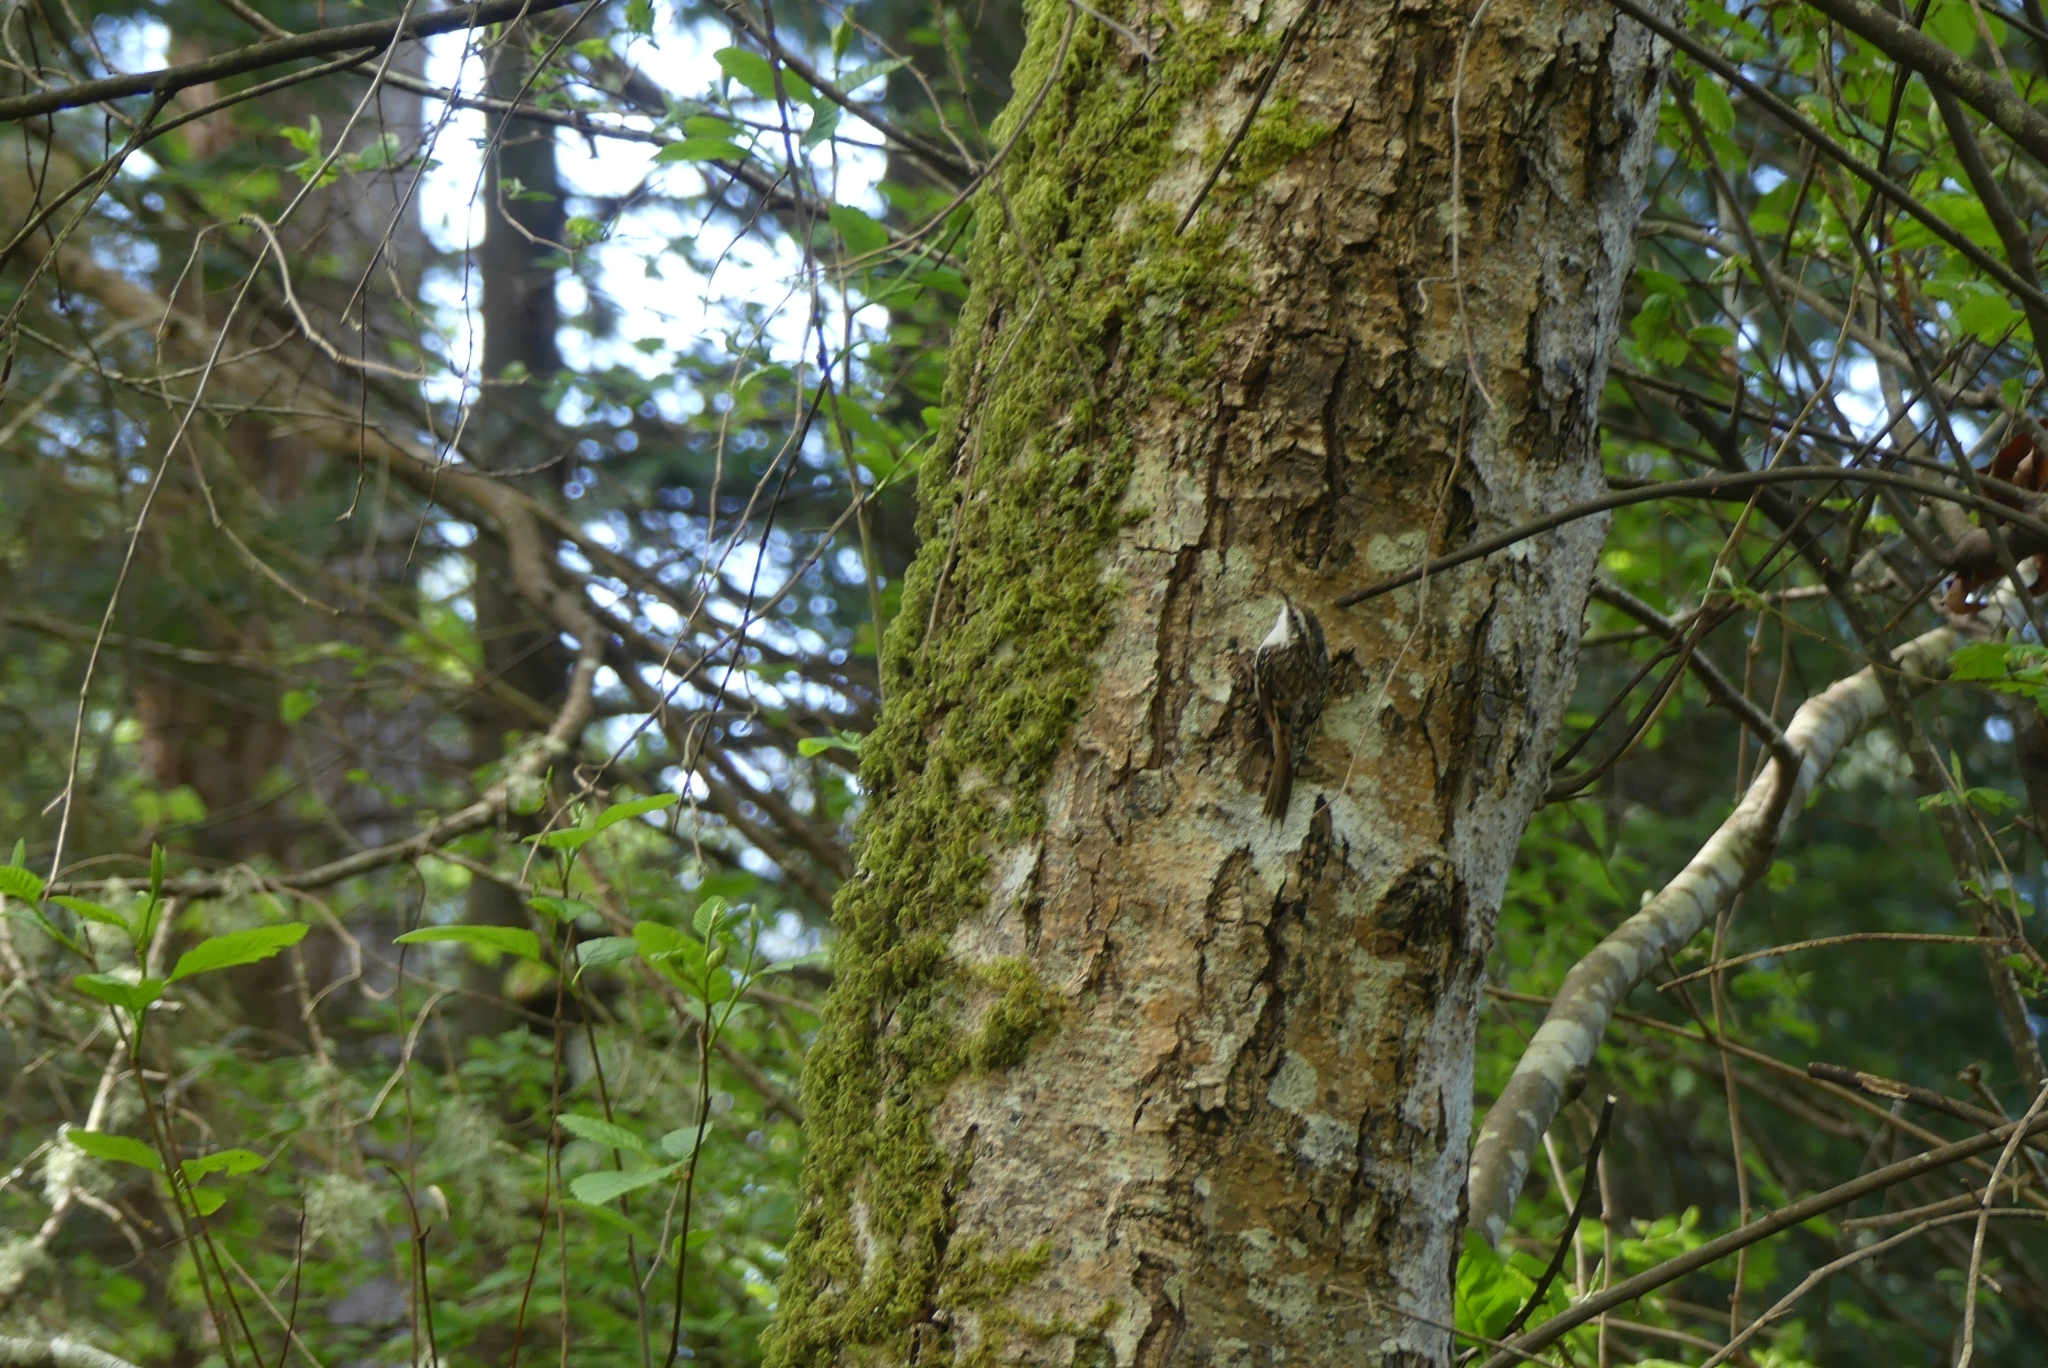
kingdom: Animalia
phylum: Chordata
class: Aves
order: Passeriformes
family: Certhiidae
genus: Certhia
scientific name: Certhia americana
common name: Brown creeper
